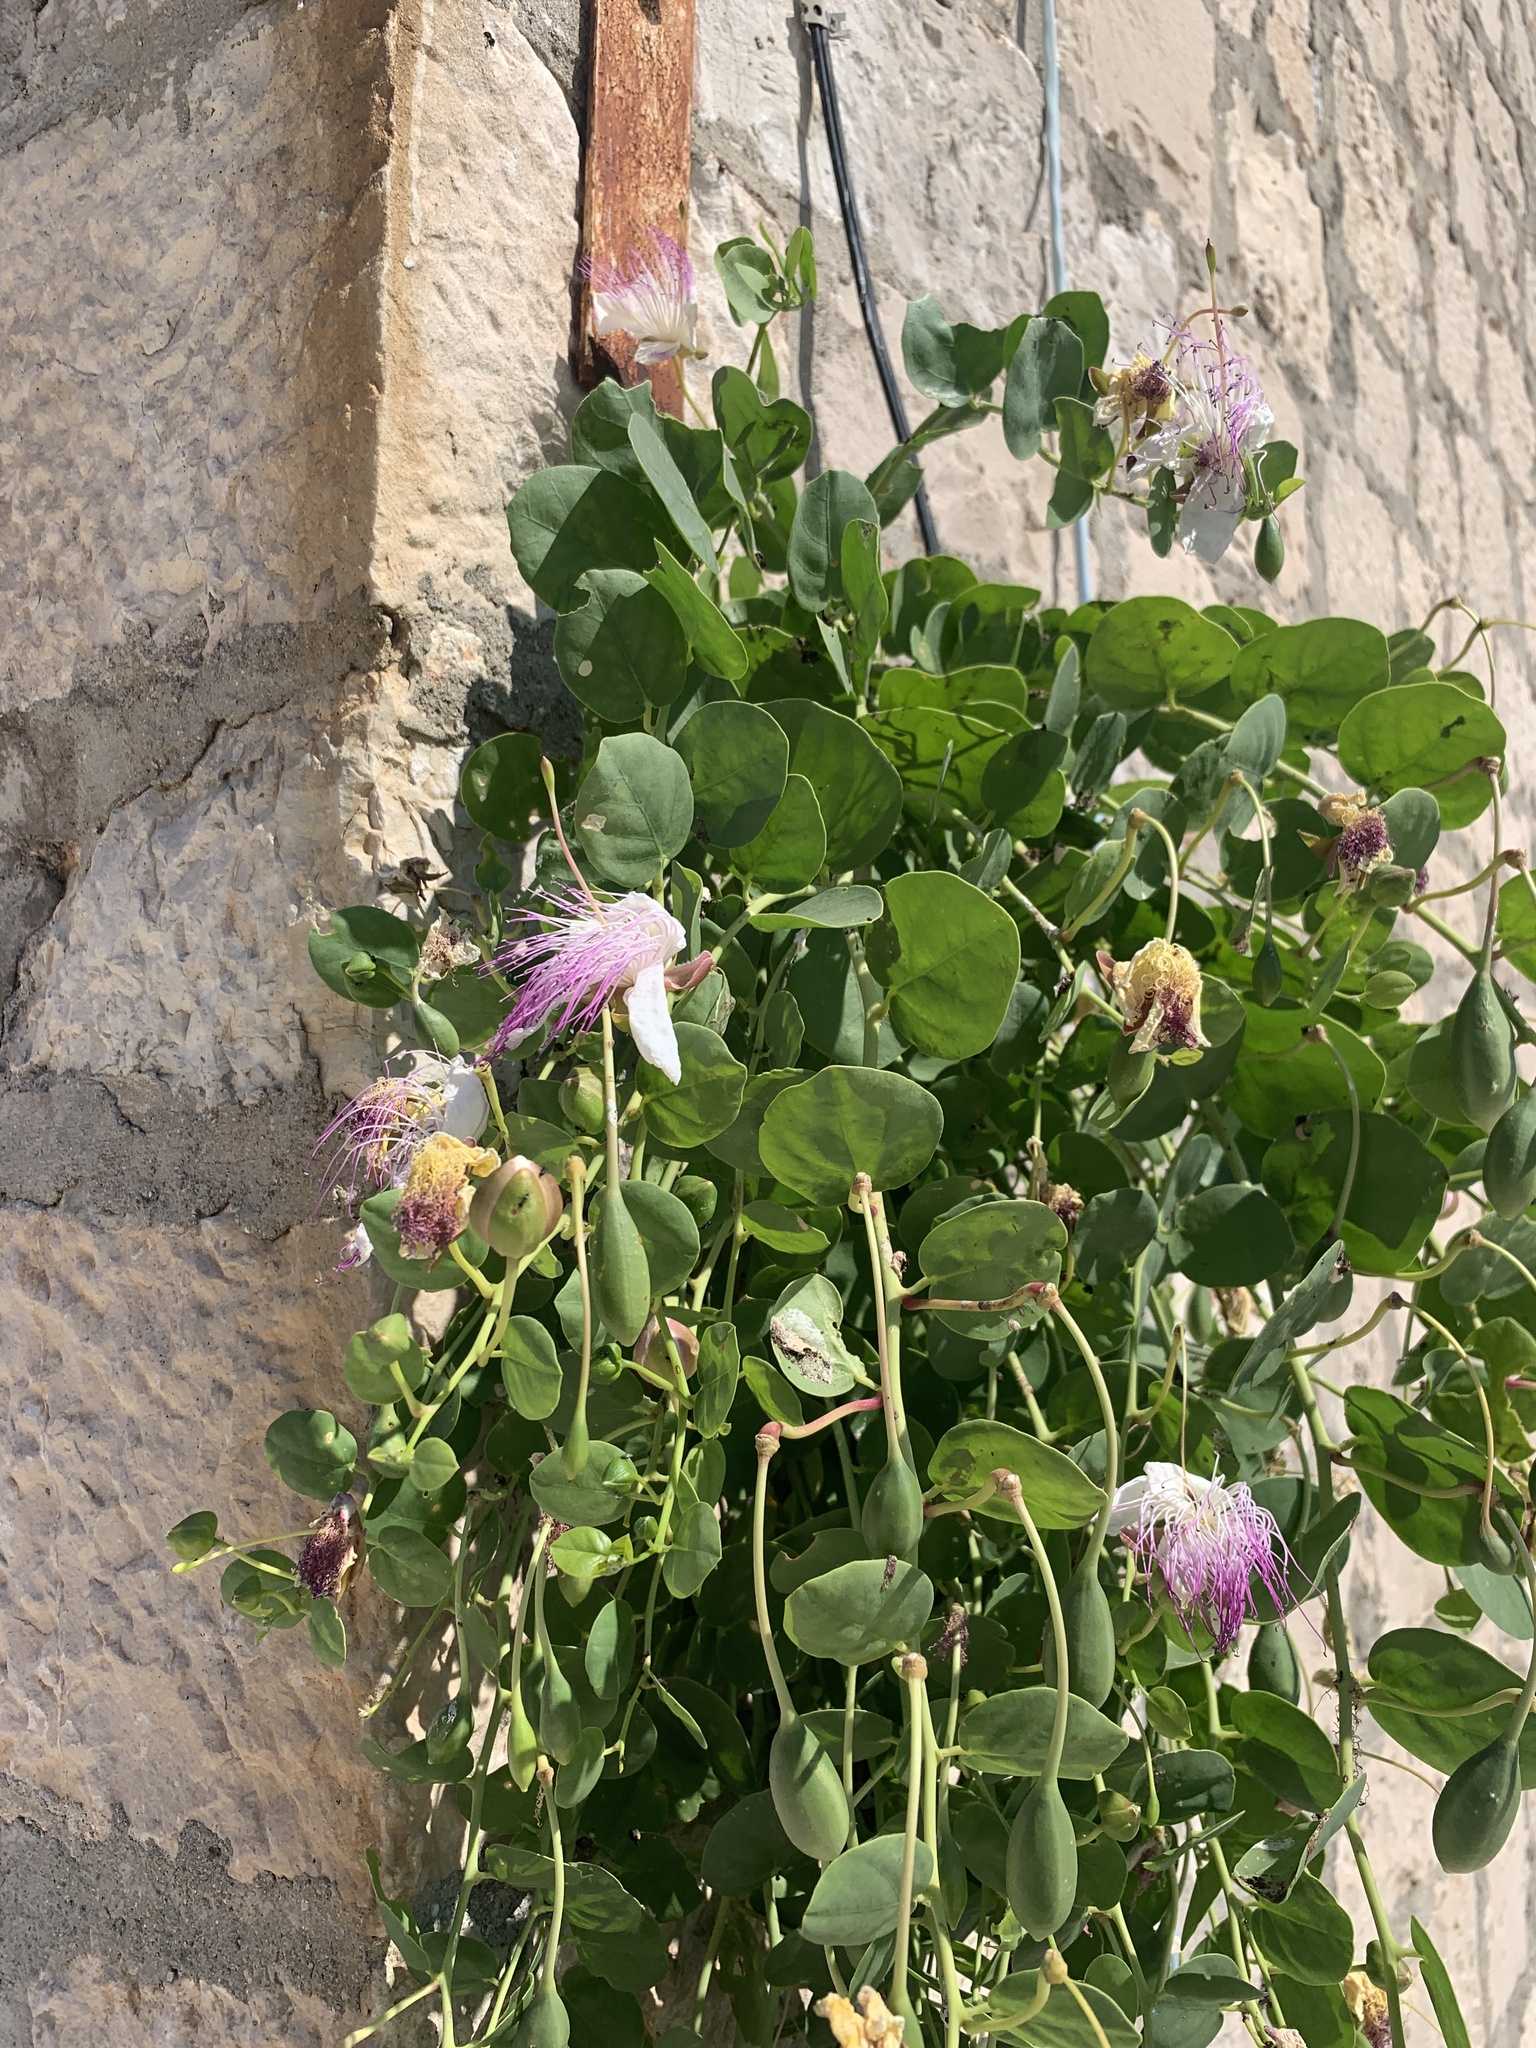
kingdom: Plantae
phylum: Tracheophyta
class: Magnoliopsida
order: Brassicales
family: Capparaceae
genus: Capparis
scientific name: Capparis orientalis
